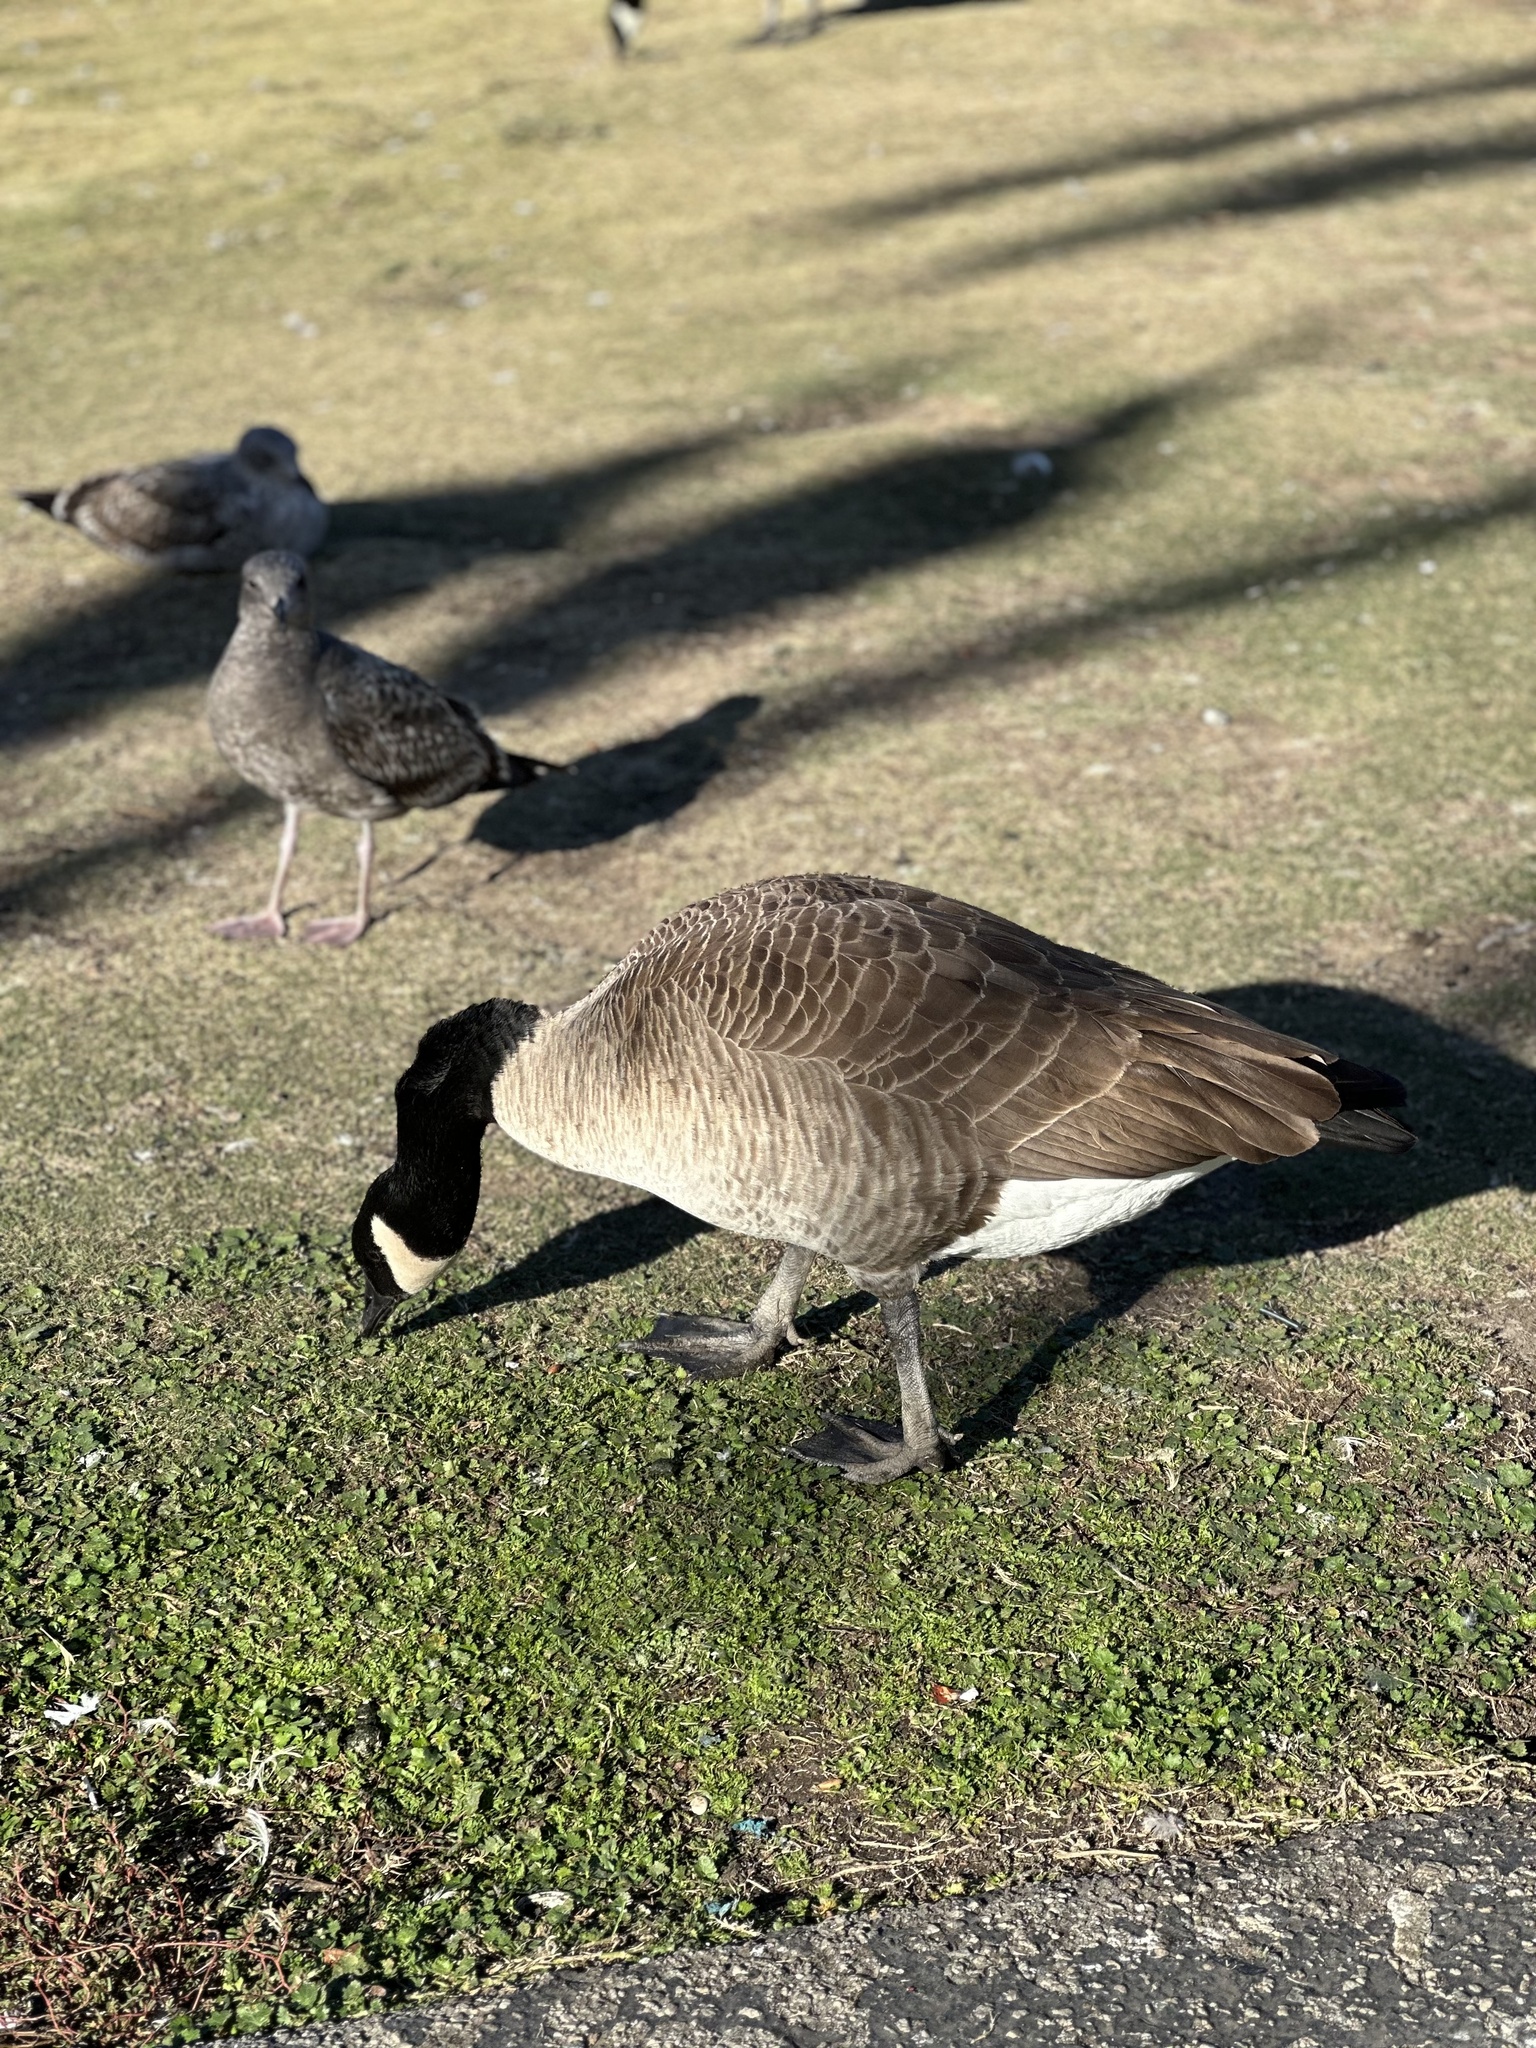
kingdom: Animalia
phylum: Chordata
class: Aves
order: Anseriformes
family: Anatidae
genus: Branta
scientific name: Branta canadensis
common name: Canada goose
